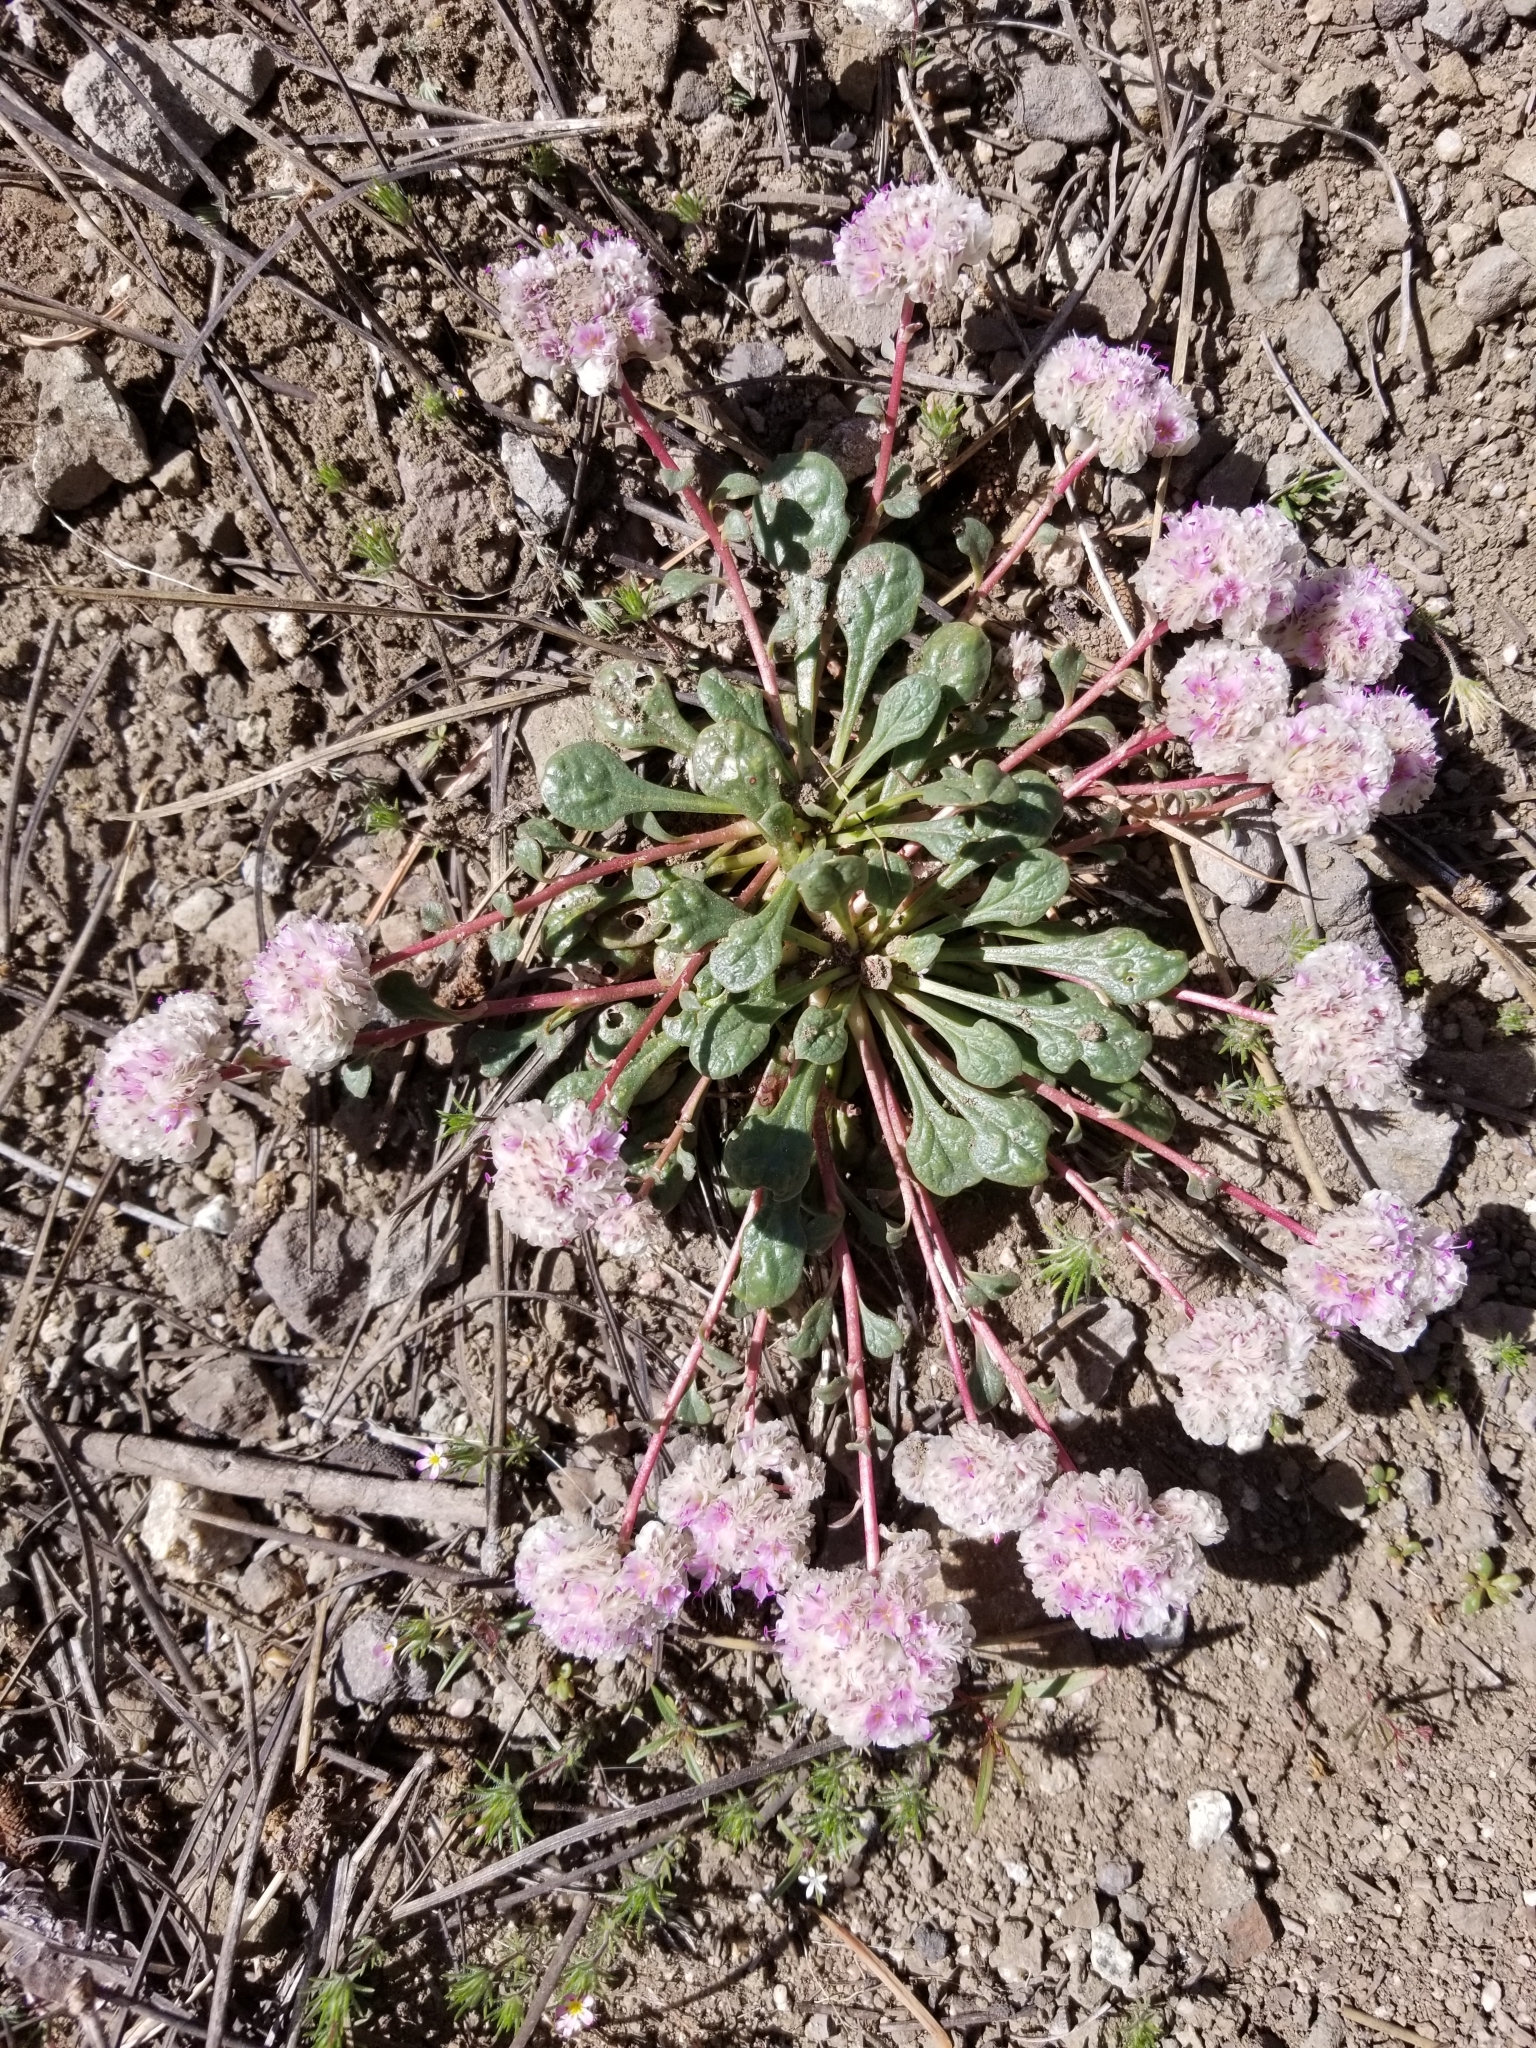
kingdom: Plantae
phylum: Tracheophyta
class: Magnoliopsida
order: Caryophyllales
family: Montiaceae
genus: Calyptridium
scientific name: Calyptridium monospermum
